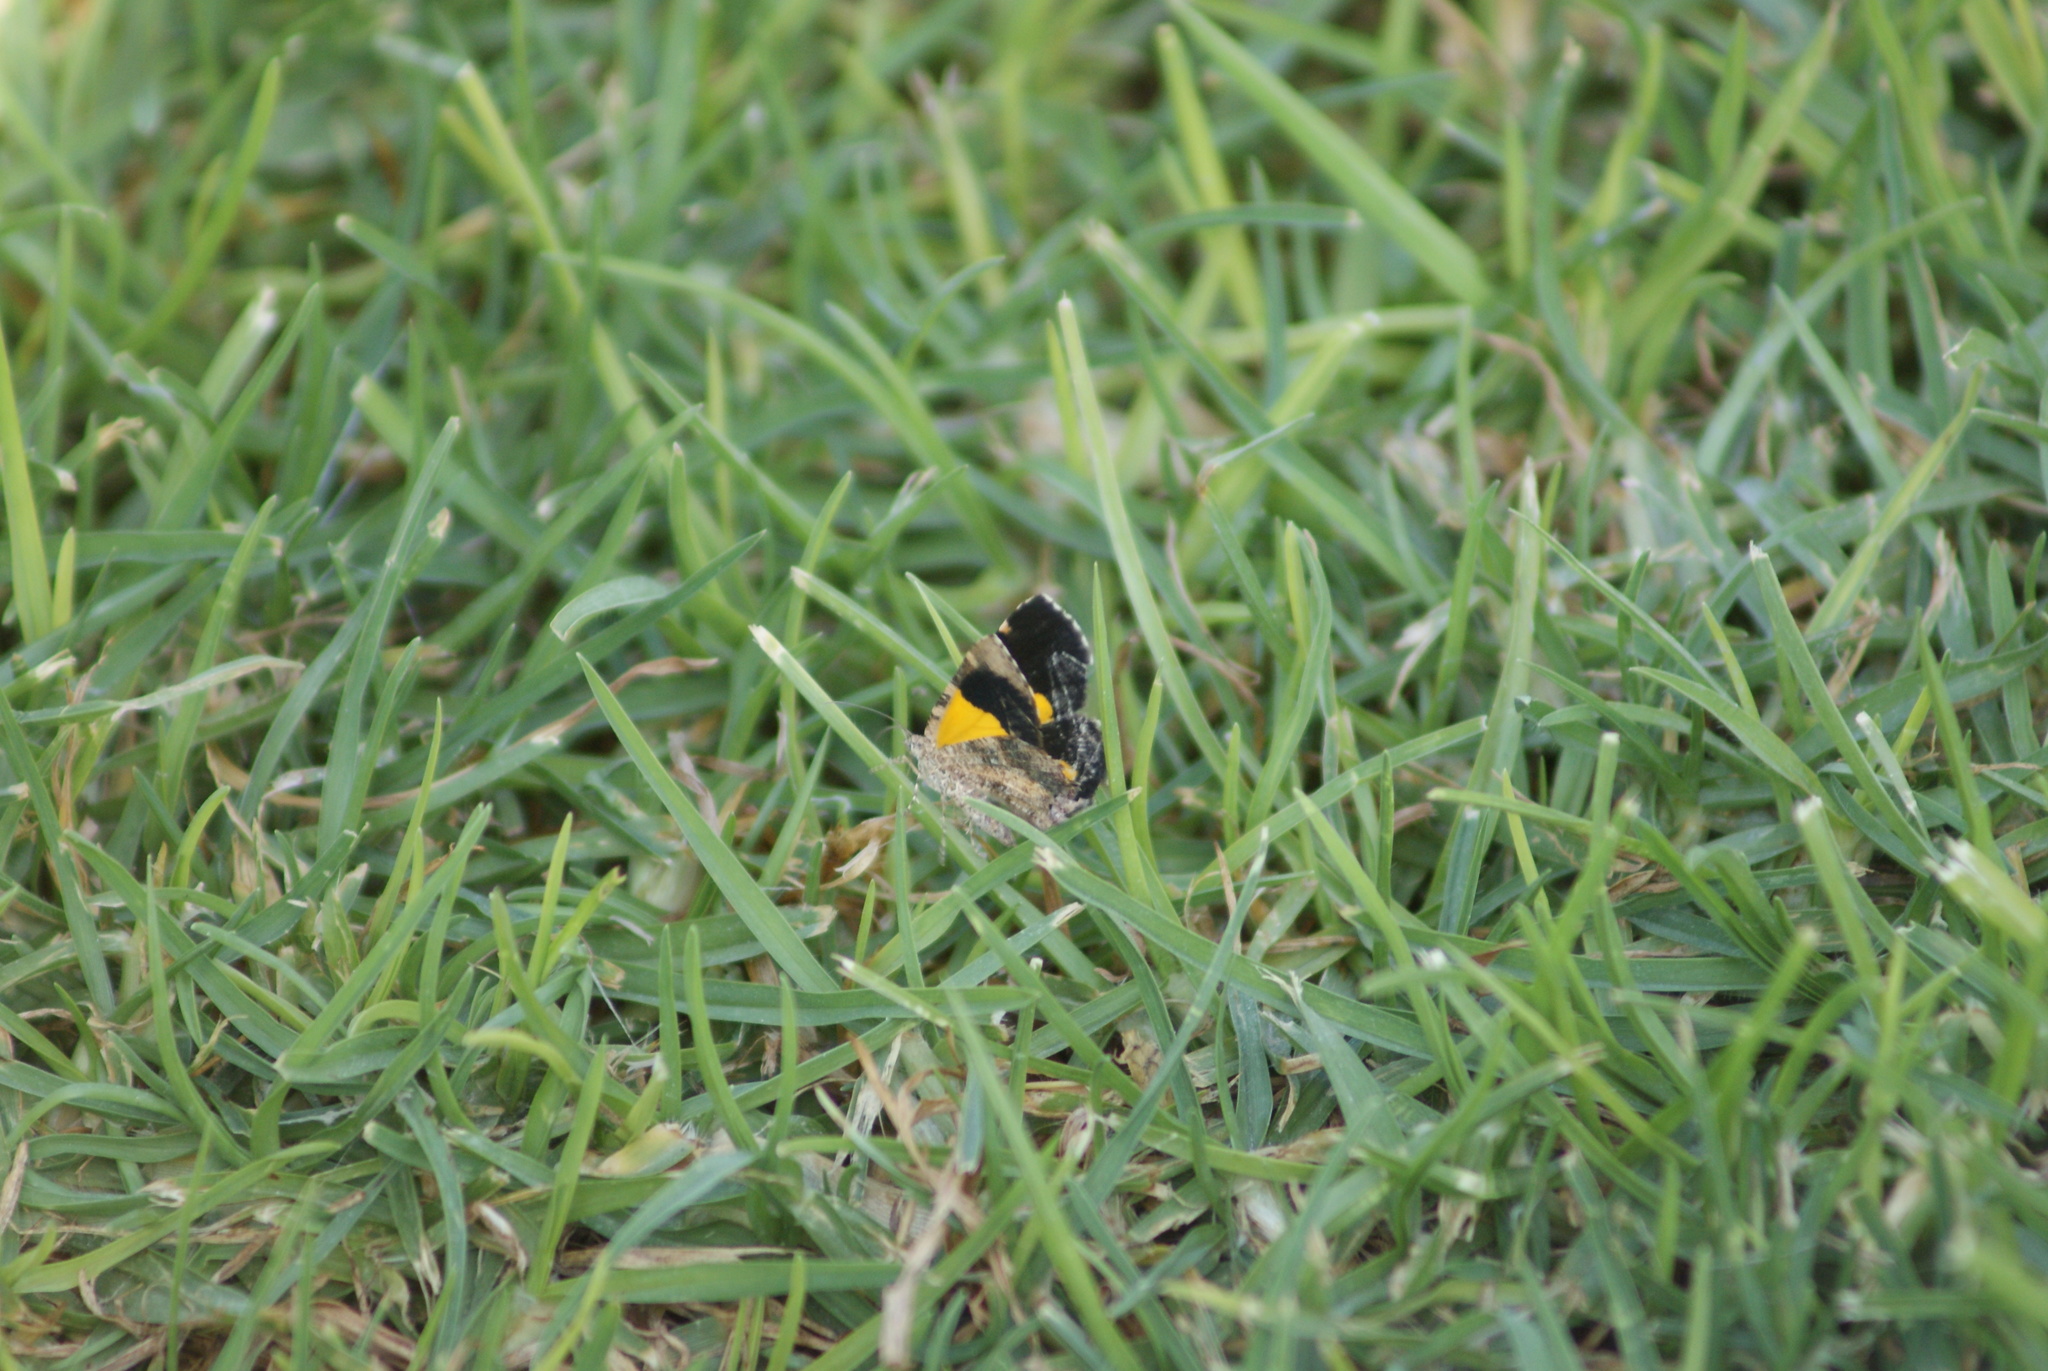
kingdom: Animalia
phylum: Arthropoda
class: Insecta
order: Lepidoptera
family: Geometridae
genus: Heterusia
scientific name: Heterusia atalantata
